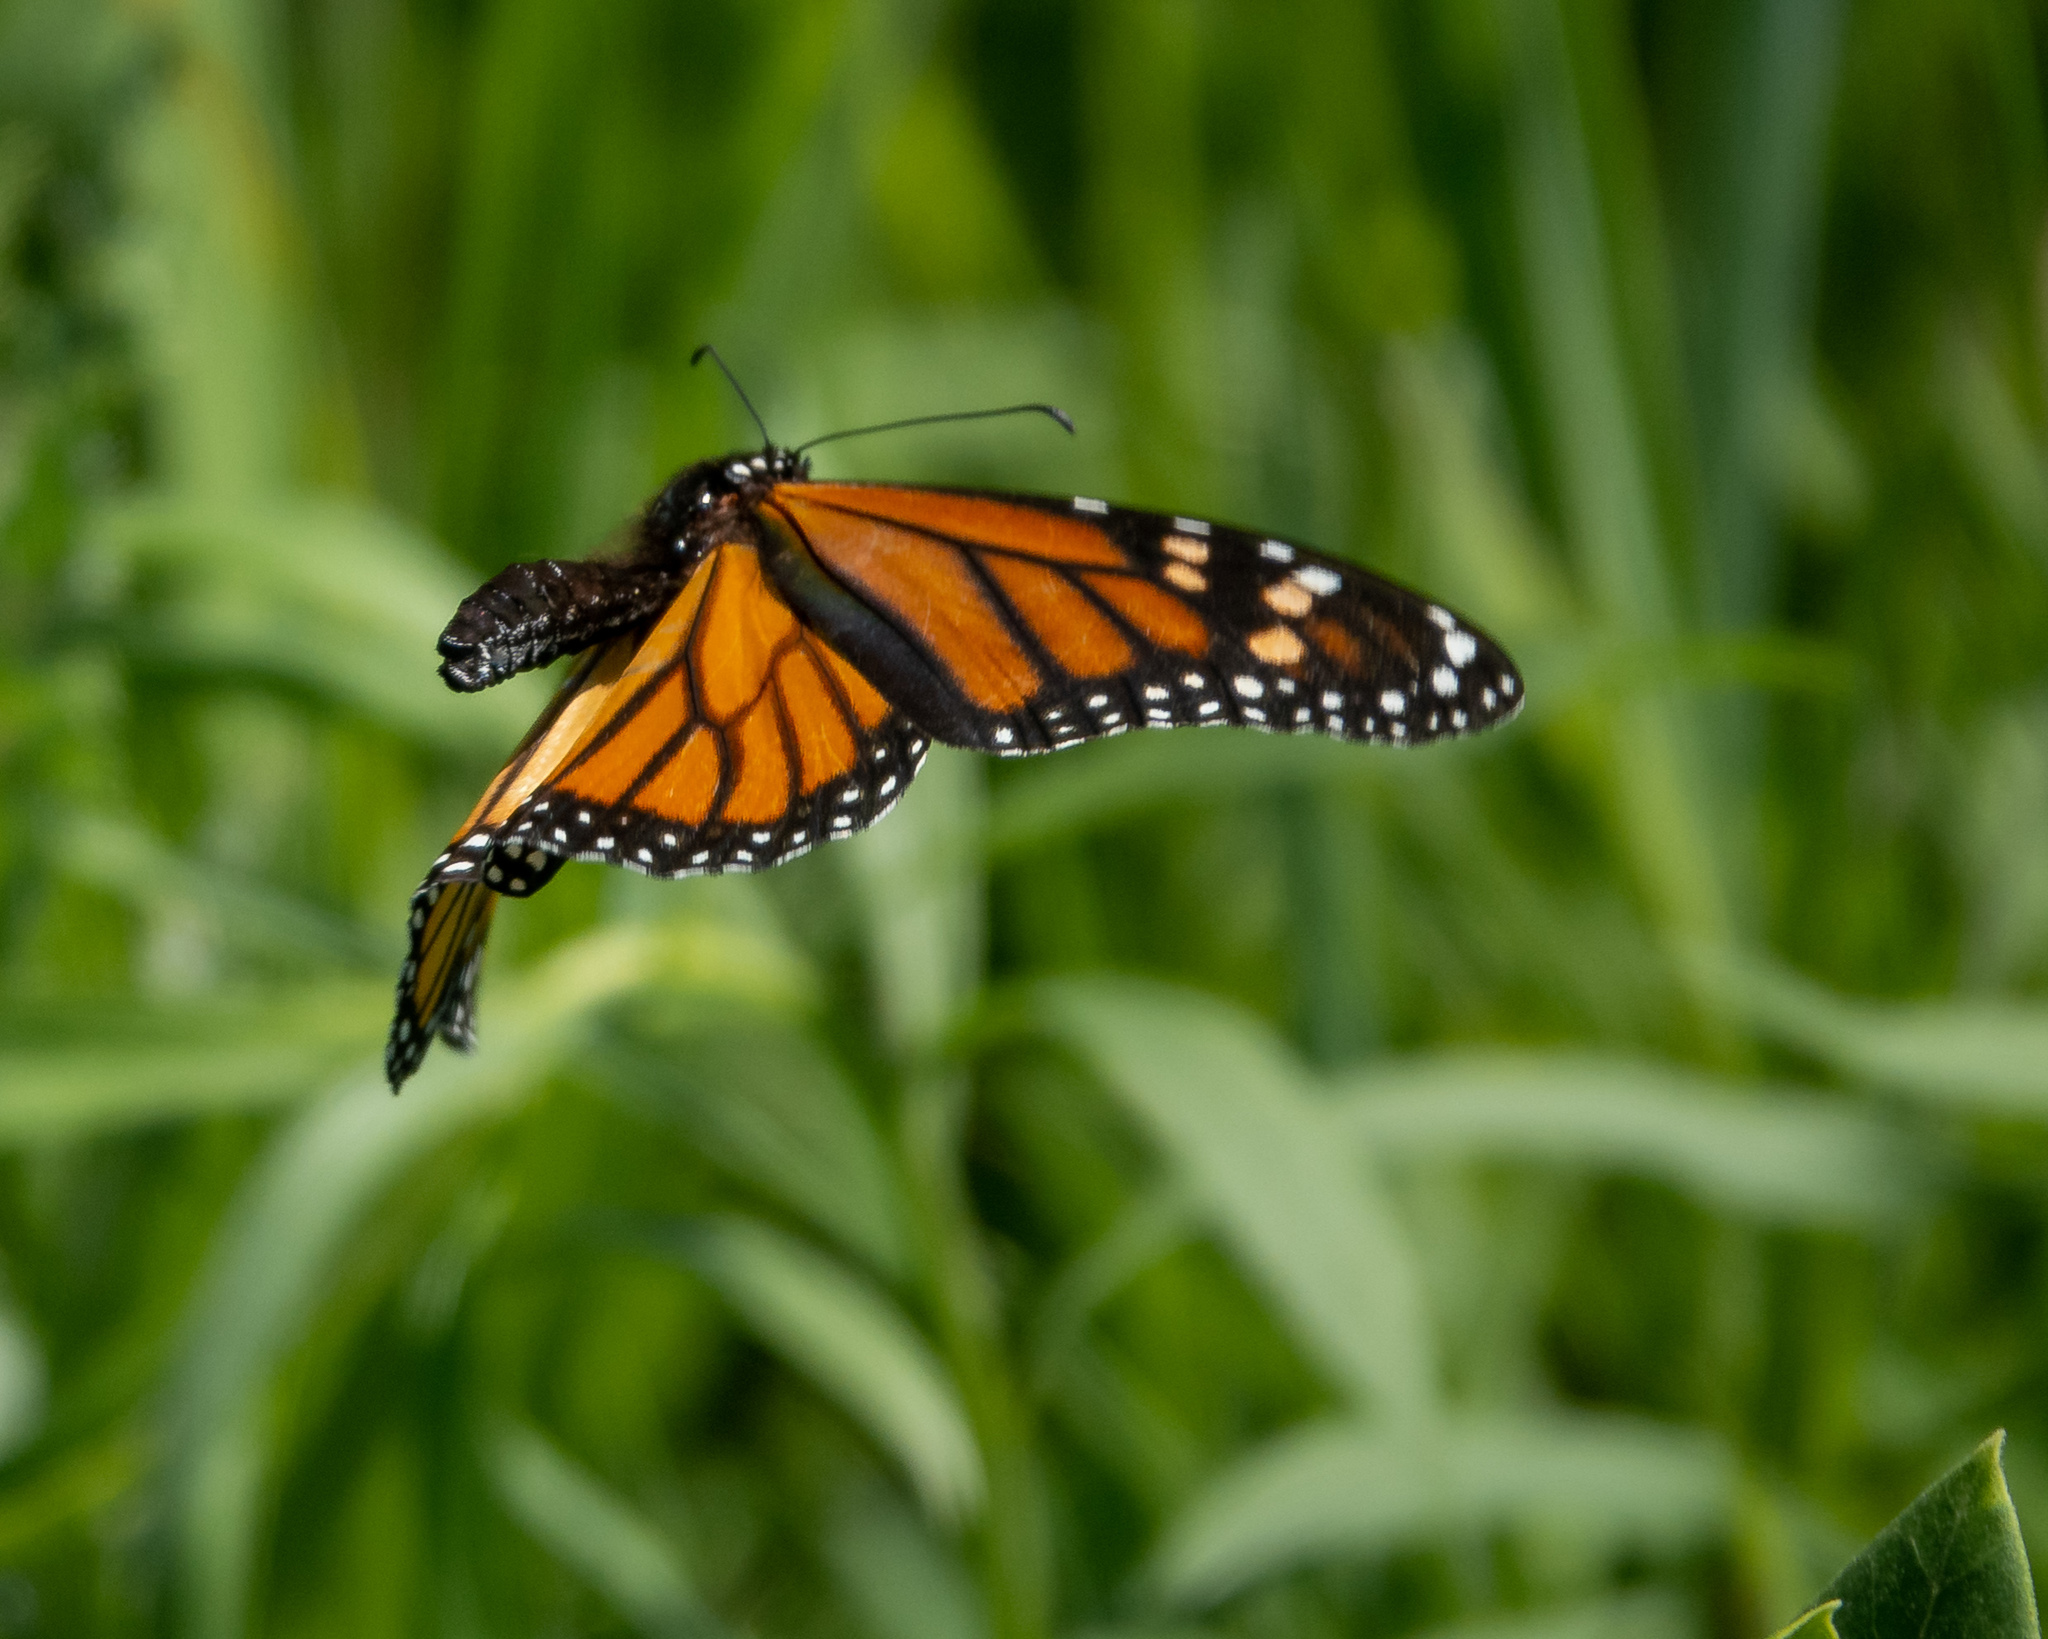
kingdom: Animalia
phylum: Arthropoda
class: Insecta
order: Lepidoptera
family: Nymphalidae
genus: Danaus
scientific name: Danaus plexippus
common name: Monarch
